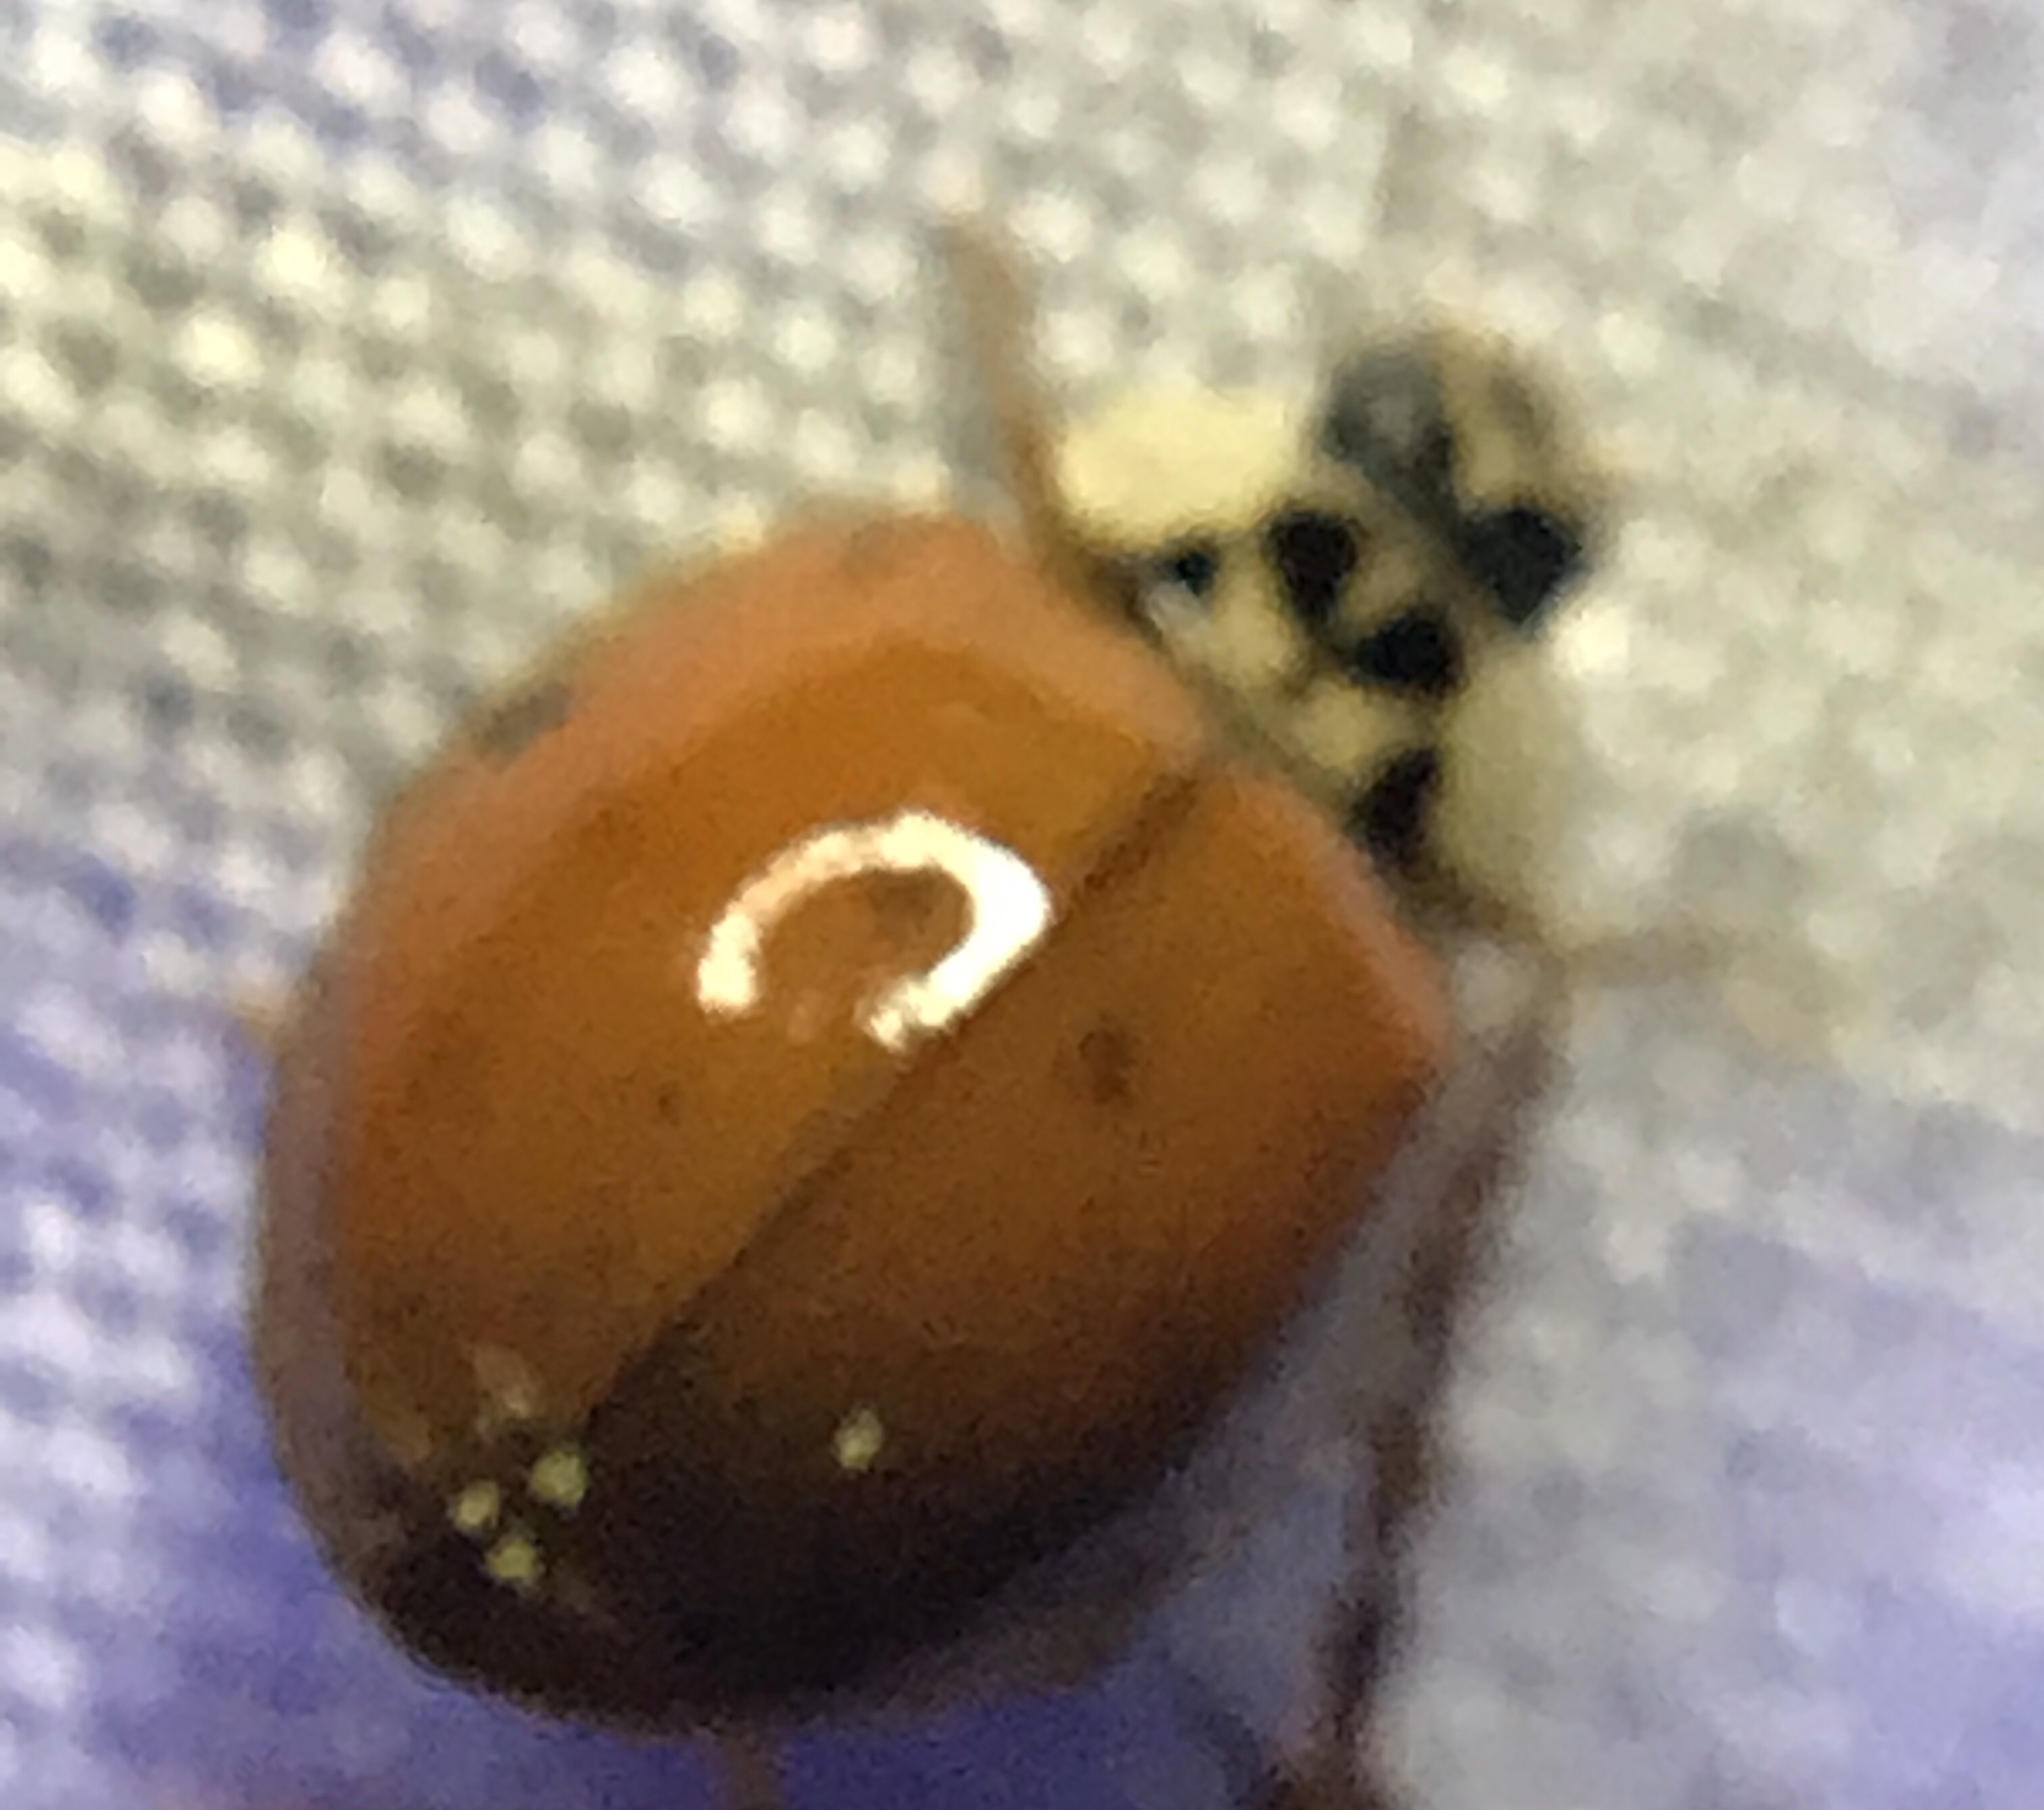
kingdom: Animalia
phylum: Arthropoda
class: Insecta
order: Coleoptera
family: Coccinellidae
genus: Harmonia
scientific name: Harmonia axyridis
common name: Harlequin ladybird
